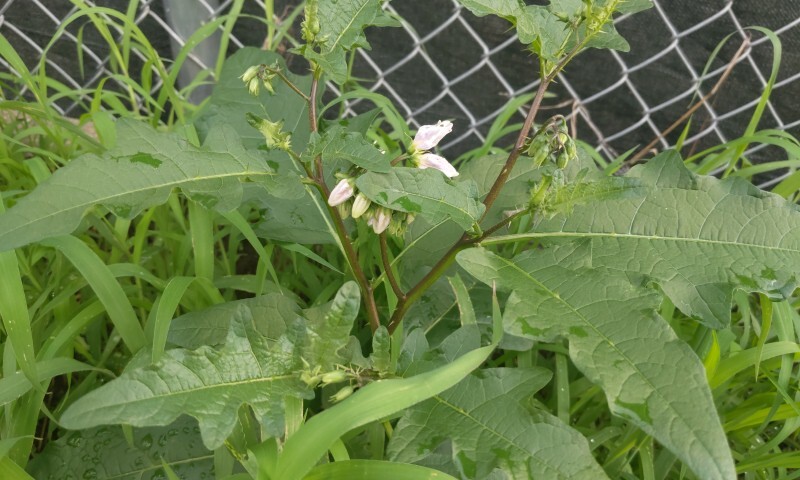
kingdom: Plantae
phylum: Tracheophyta
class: Magnoliopsida
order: Solanales
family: Solanaceae
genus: Solanum
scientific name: Solanum carolinense
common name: Horse-nettle
